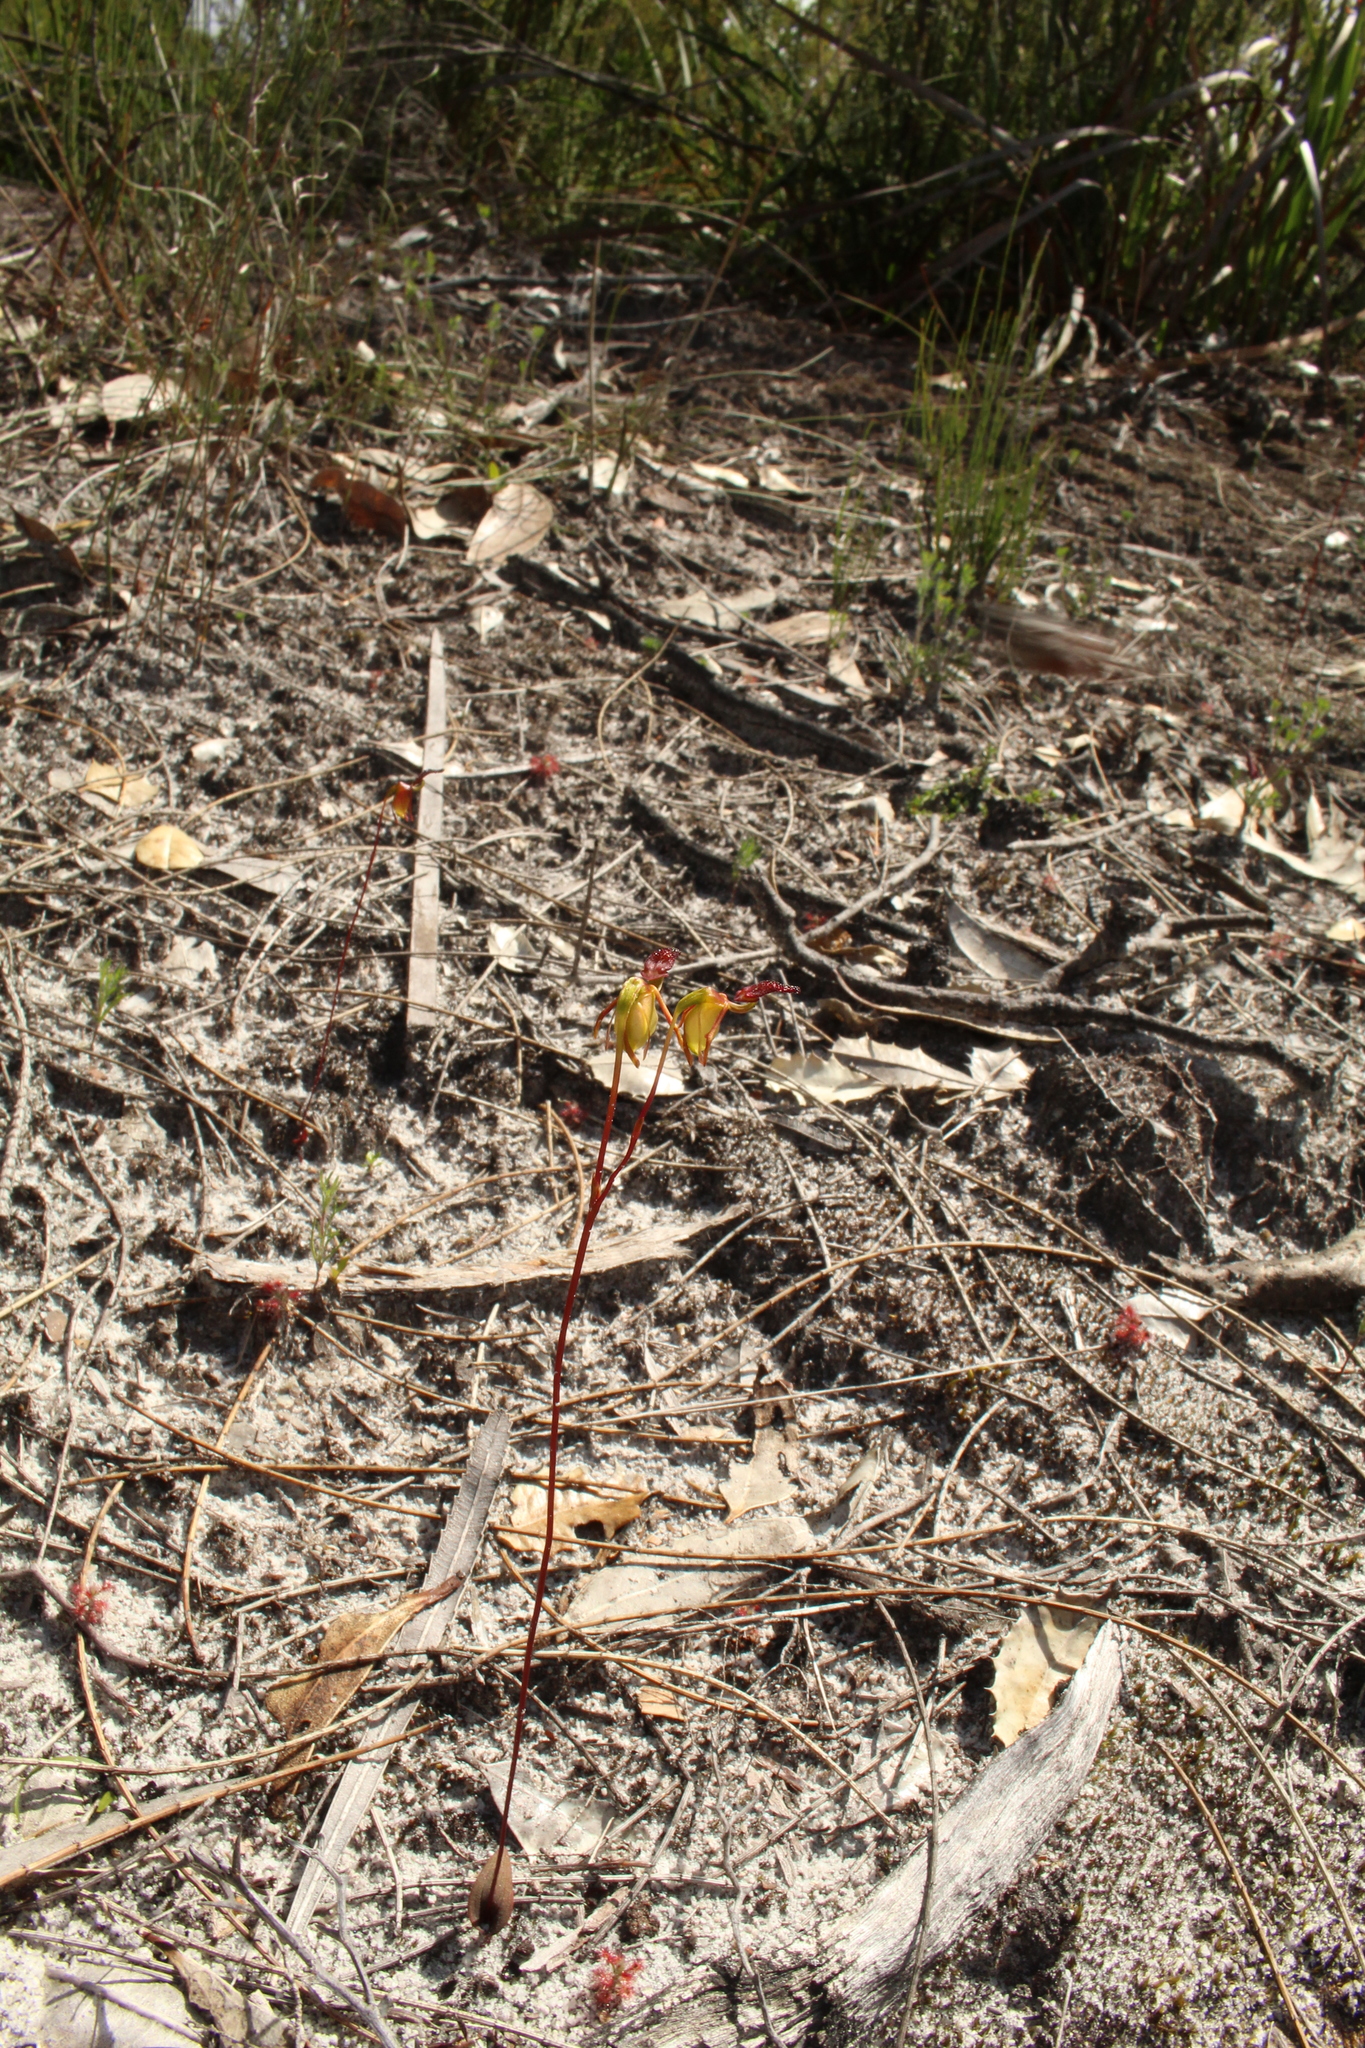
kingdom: Plantae
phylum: Tracheophyta
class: Liliopsida
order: Asparagales
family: Orchidaceae
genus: Caleana
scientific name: Caleana nigrita
